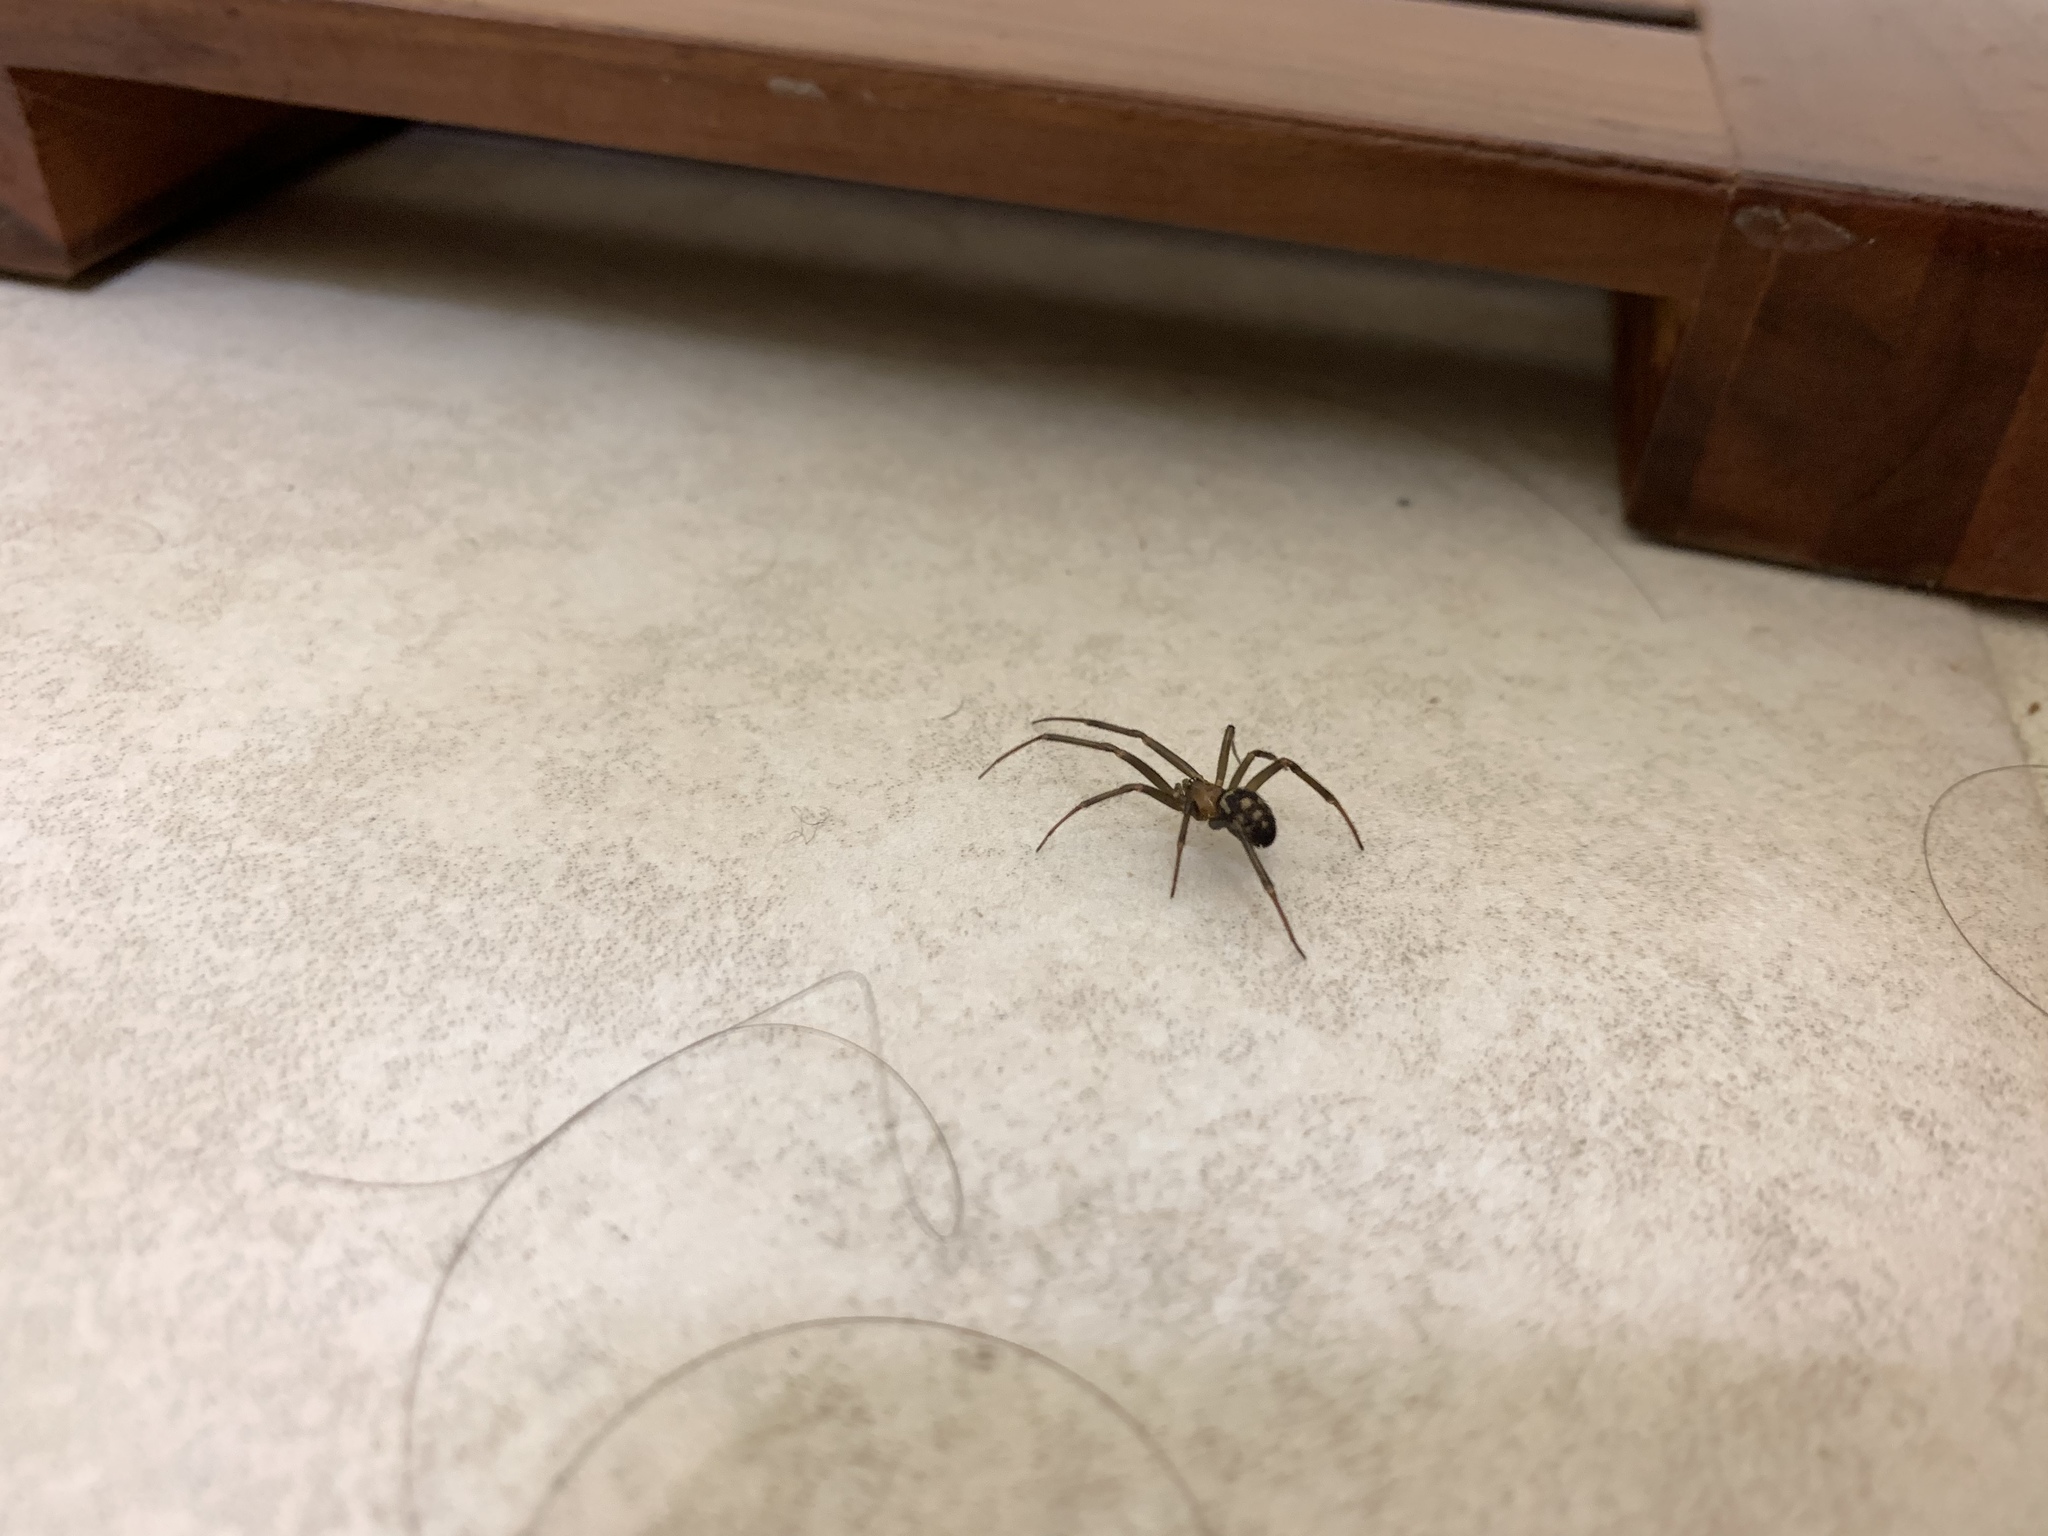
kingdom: Animalia
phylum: Arthropoda
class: Arachnida
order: Araneae
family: Theridiidae
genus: Steatoda
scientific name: Steatoda grossa
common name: False black widow
